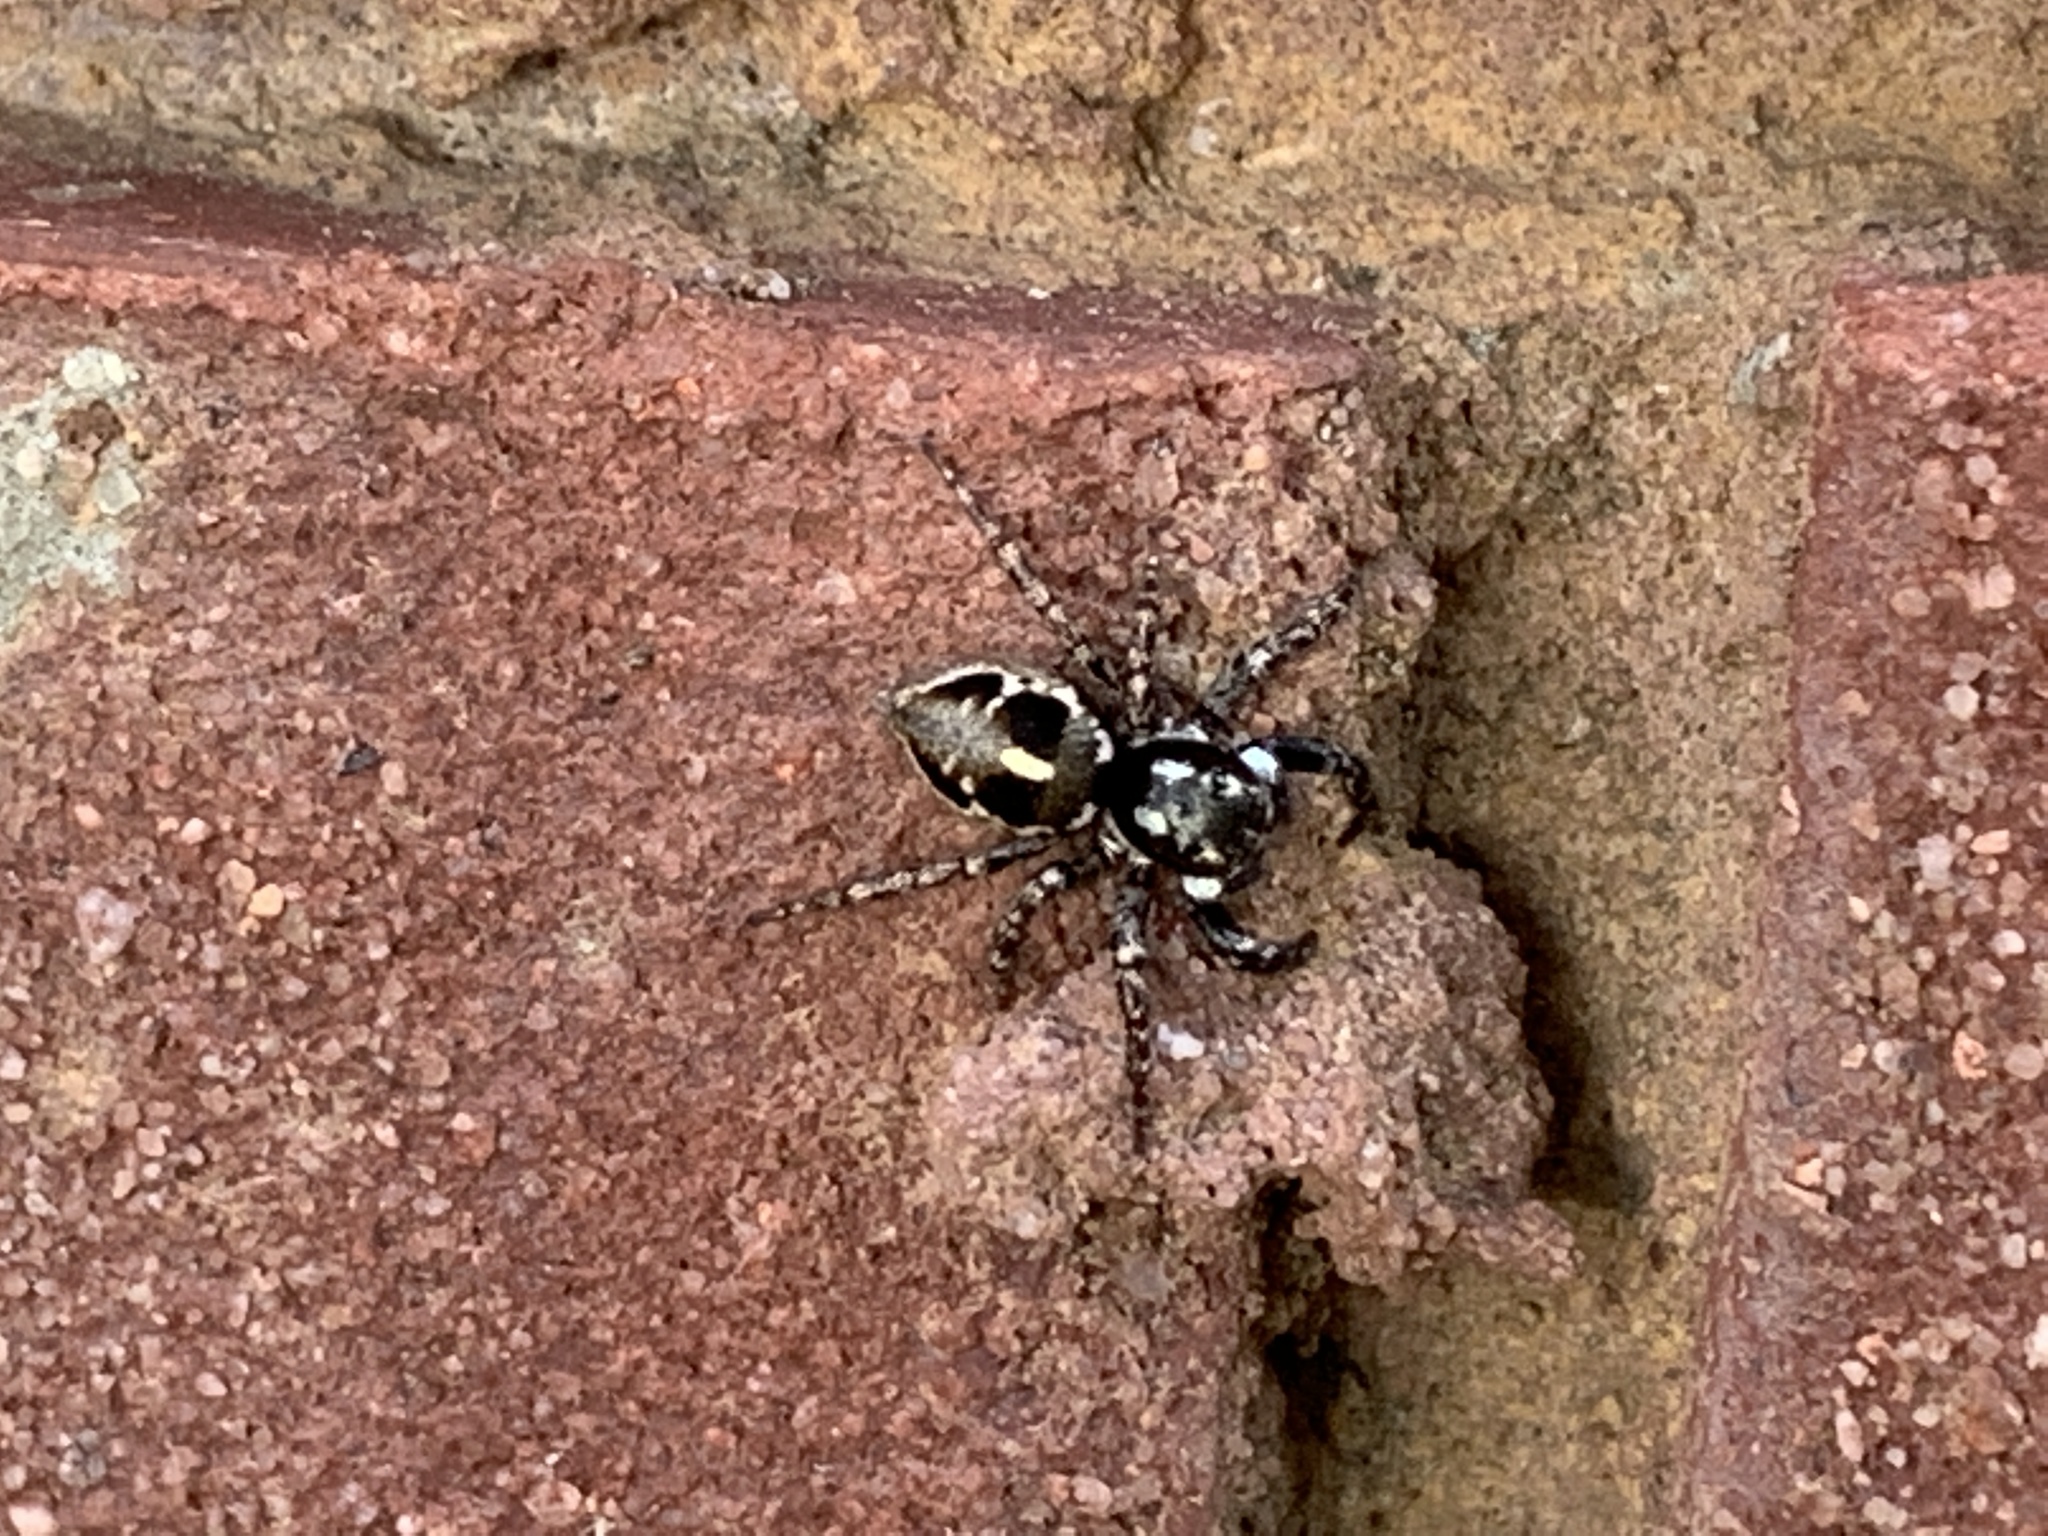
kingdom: Animalia
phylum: Arthropoda
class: Arachnida
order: Araneae
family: Salticidae
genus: Anasaitis
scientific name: Anasaitis canosa
